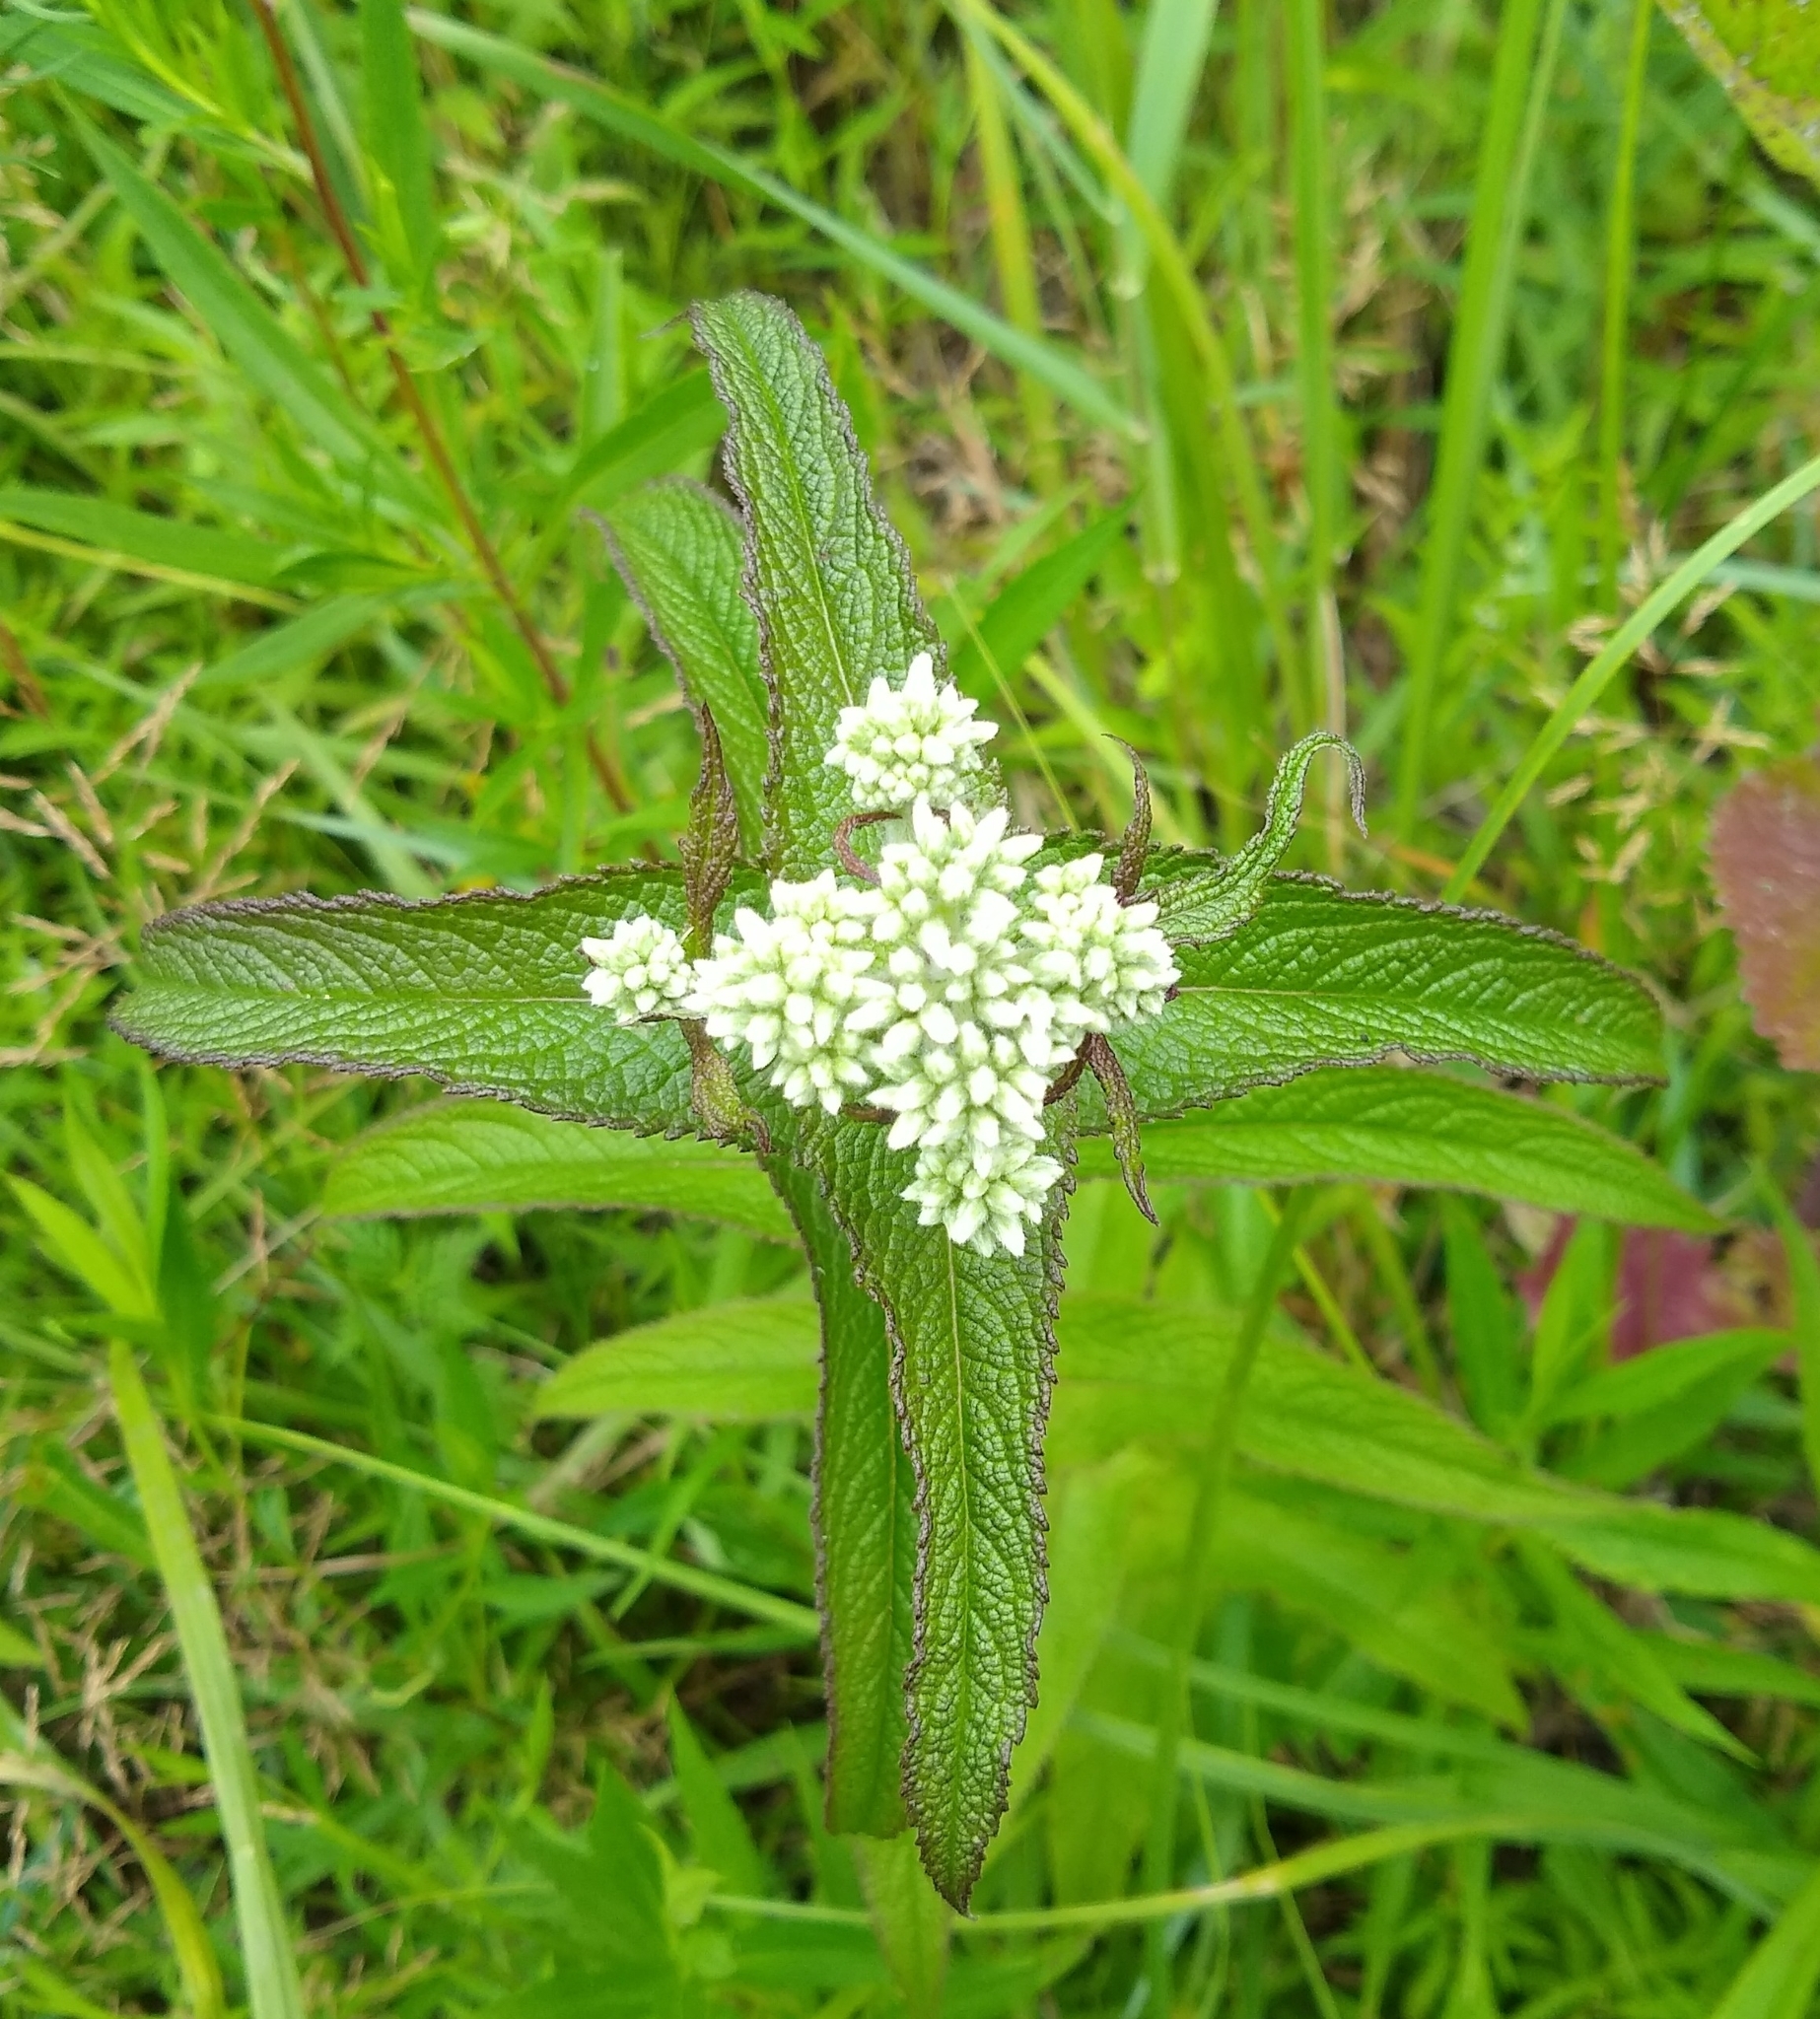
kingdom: Plantae
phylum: Tracheophyta
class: Magnoliopsida
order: Asterales
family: Asteraceae
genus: Eupatorium
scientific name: Eupatorium perfoliatum
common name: Boneset
